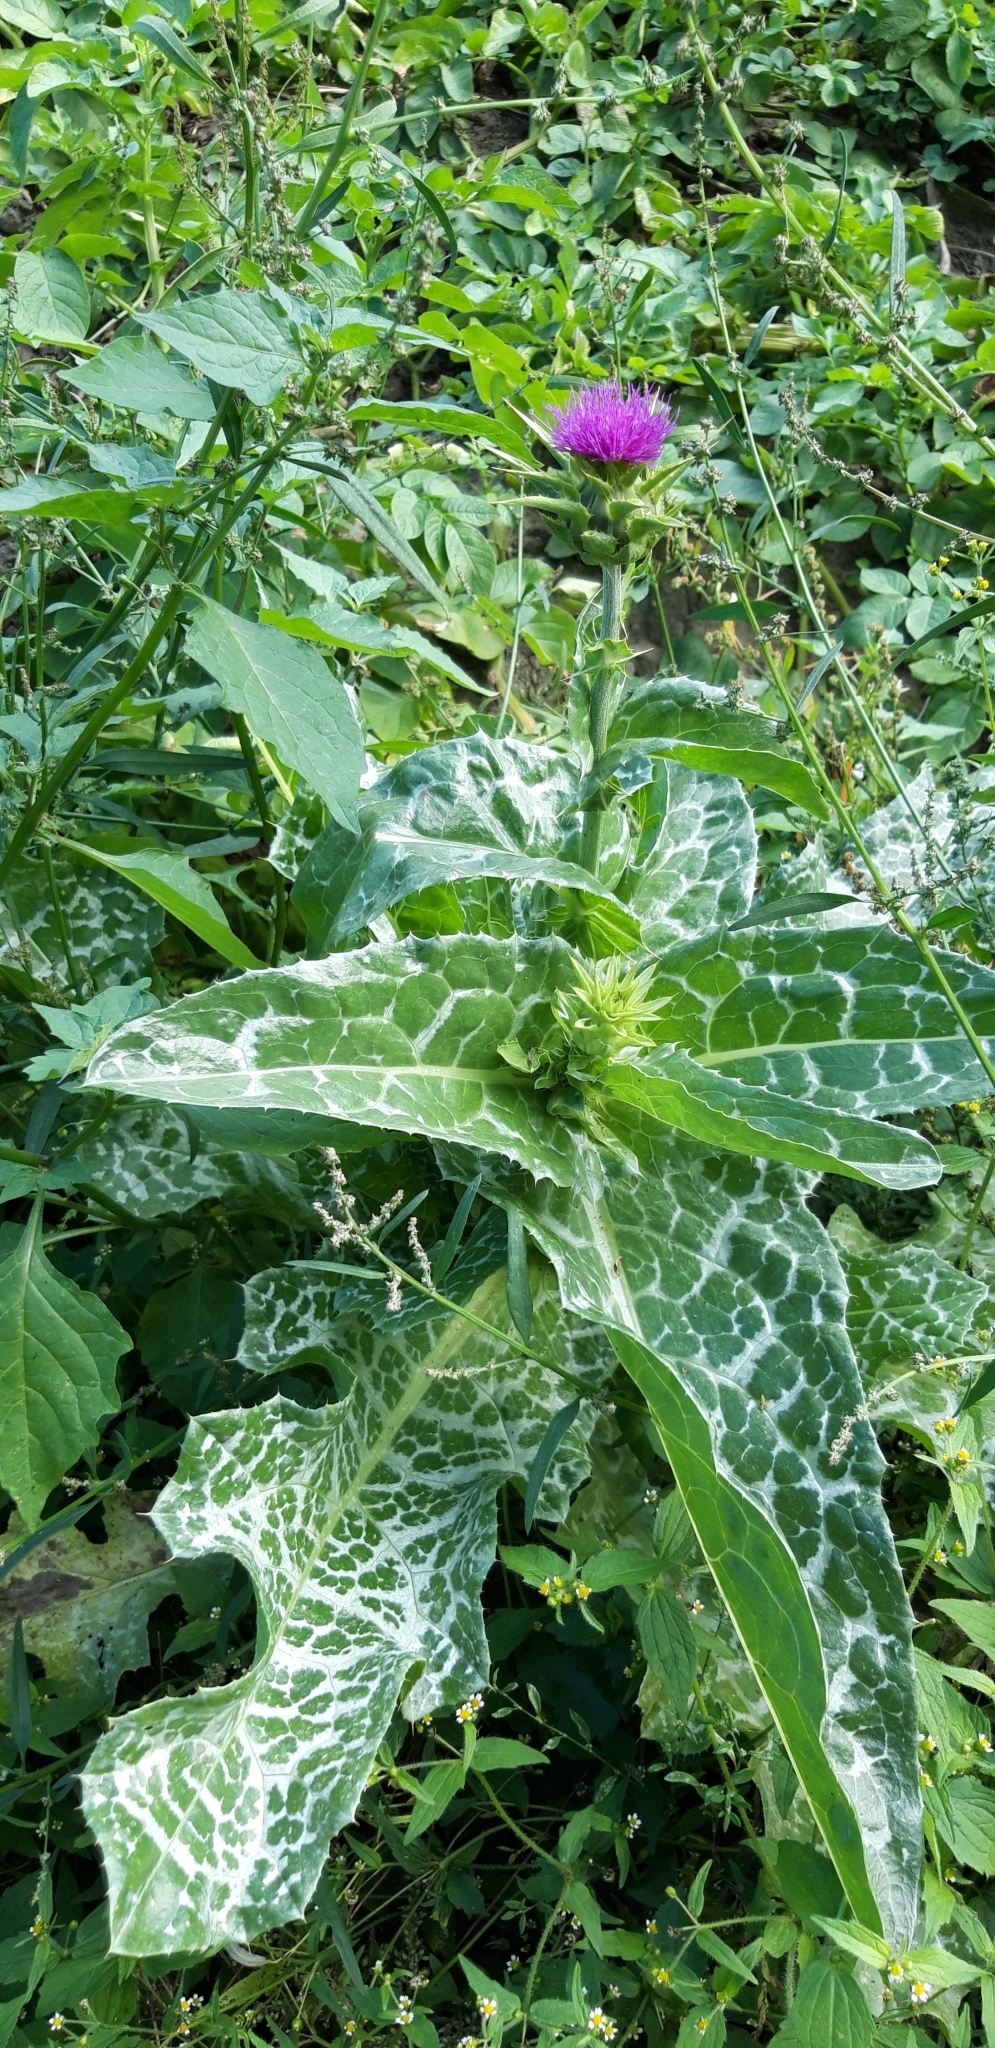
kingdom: Plantae
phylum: Tracheophyta
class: Magnoliopsida
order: Asterales
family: Asteraceae
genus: Silybum
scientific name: Silybum marianum
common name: Milk thistle
